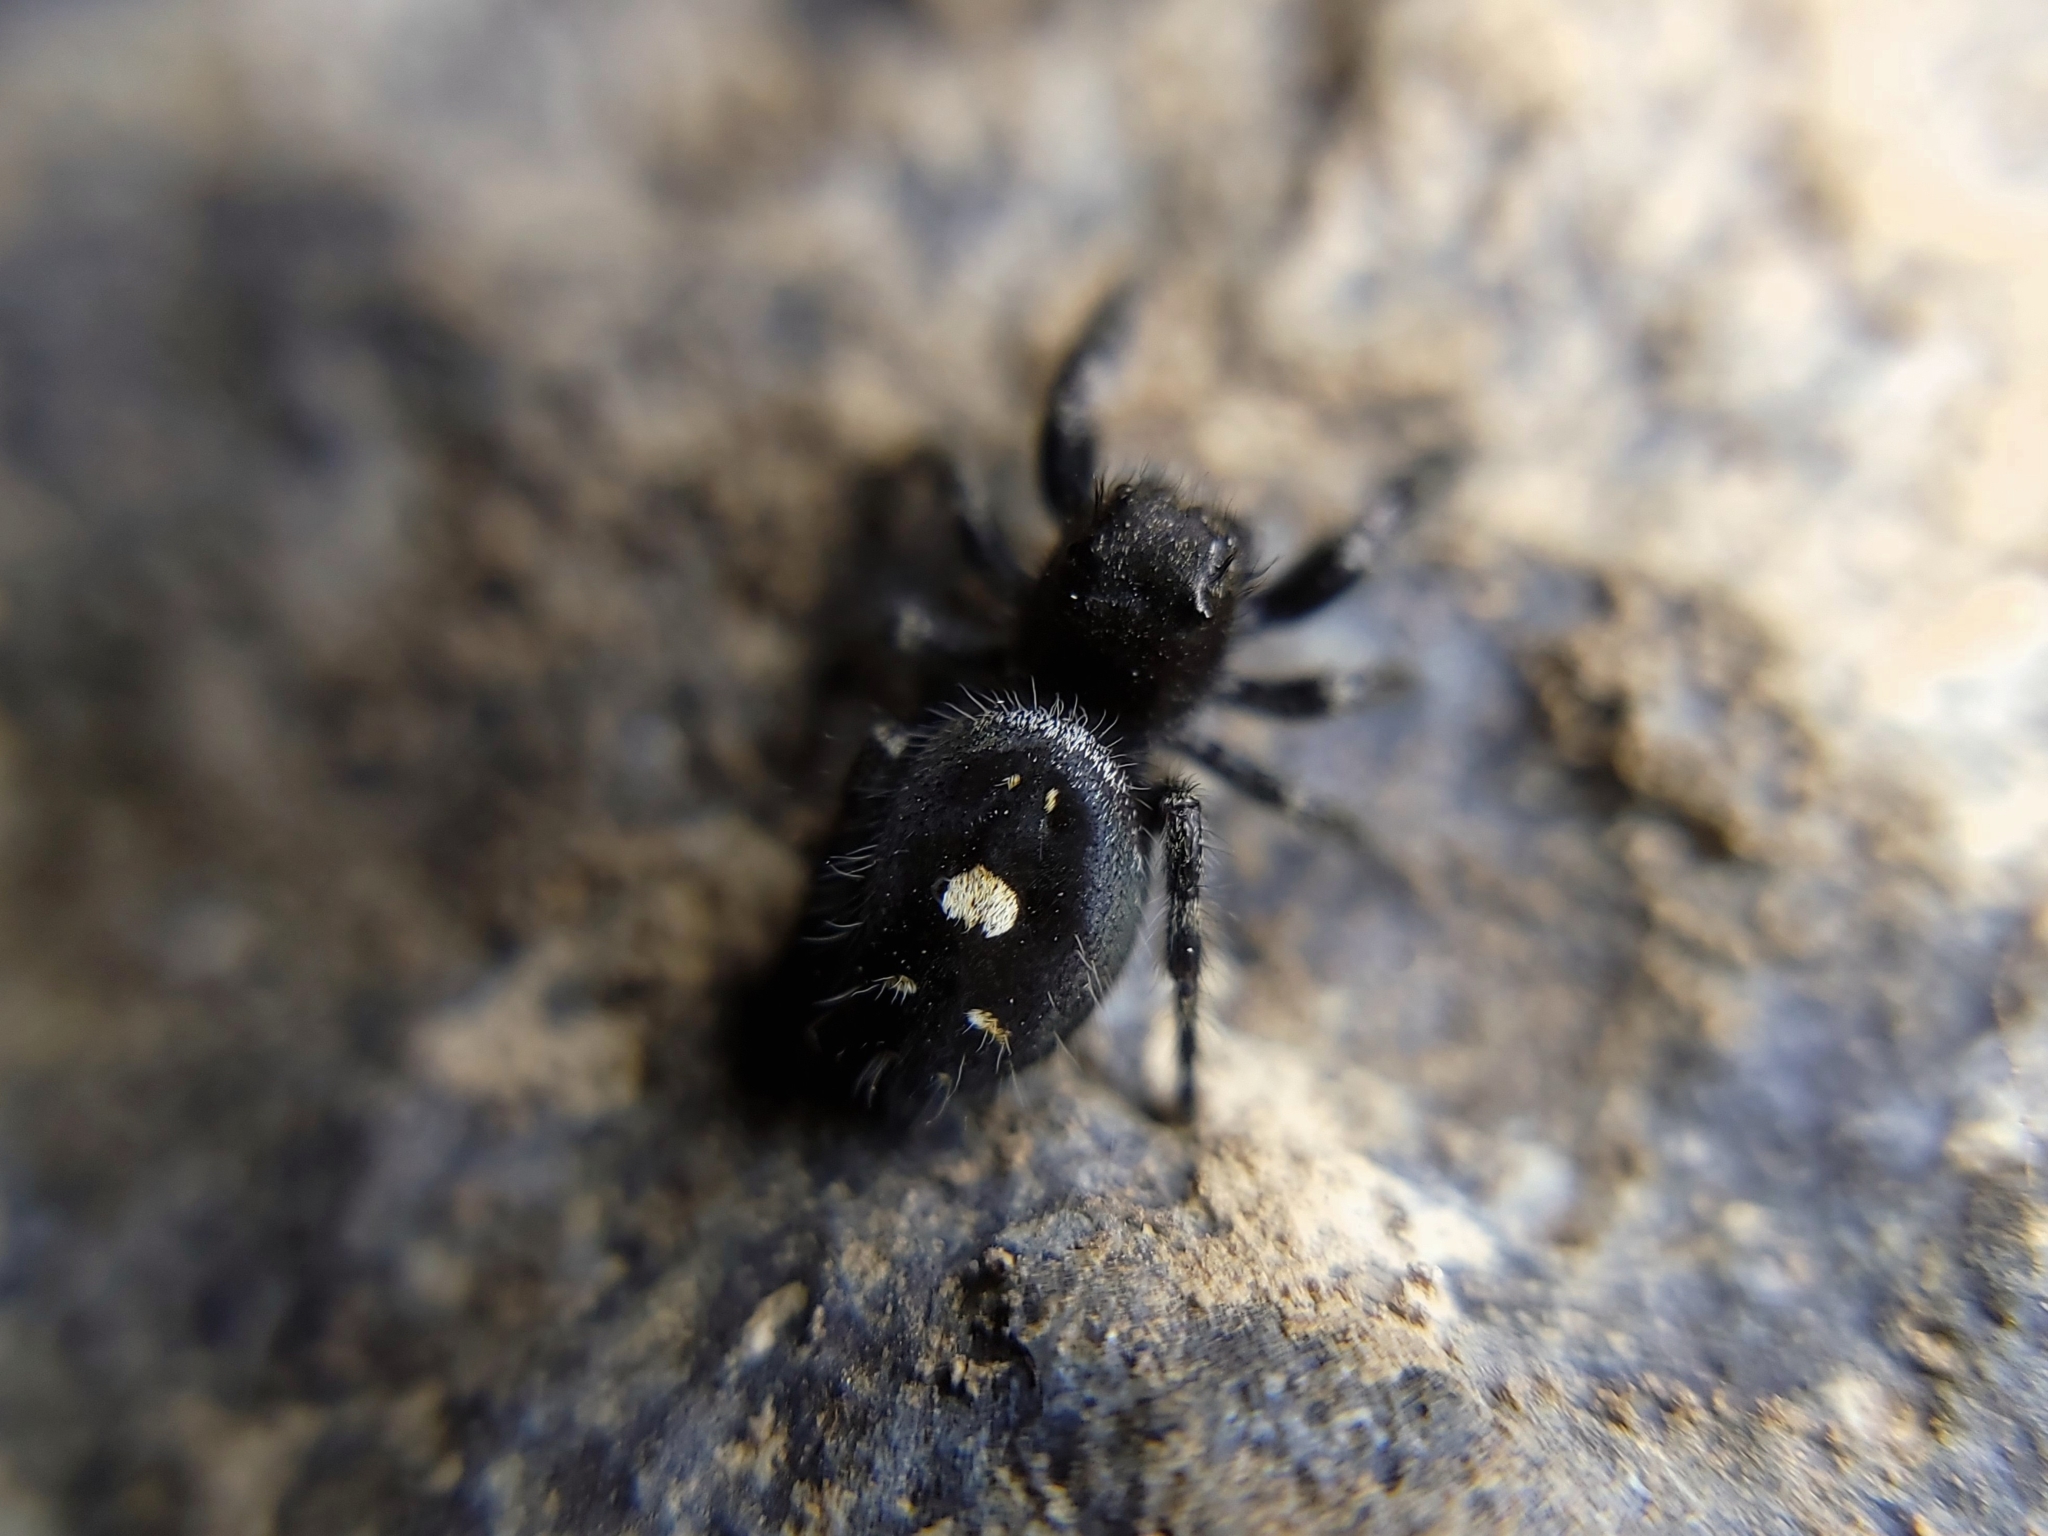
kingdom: Animalia
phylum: Arthropoda
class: Arachnida
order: Araneae
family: Salticidae
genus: Phidippus
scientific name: Phidippus audax
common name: Bold jumper
